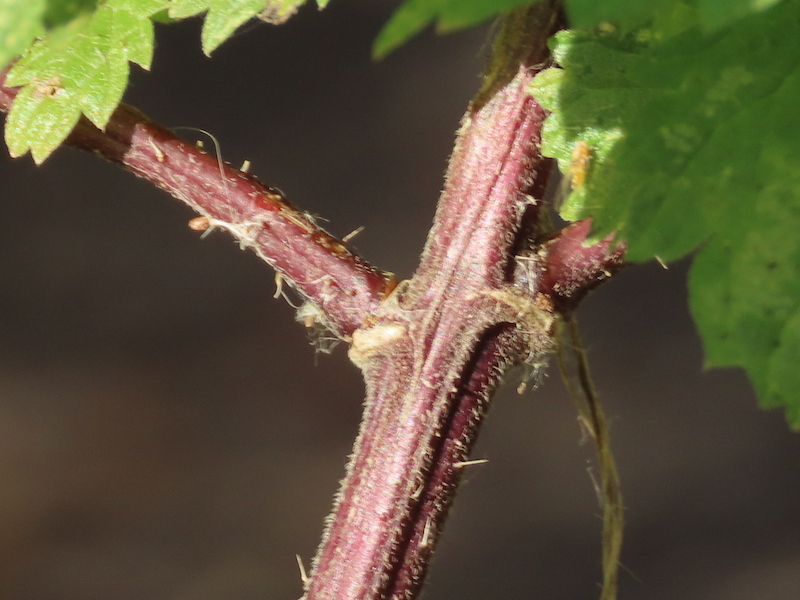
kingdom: Plantae
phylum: Tracheophyta
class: Magnoliopsida
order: Rosales
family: Urticaceae
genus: Urtica
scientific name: Urtica dioica
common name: Common nettle
